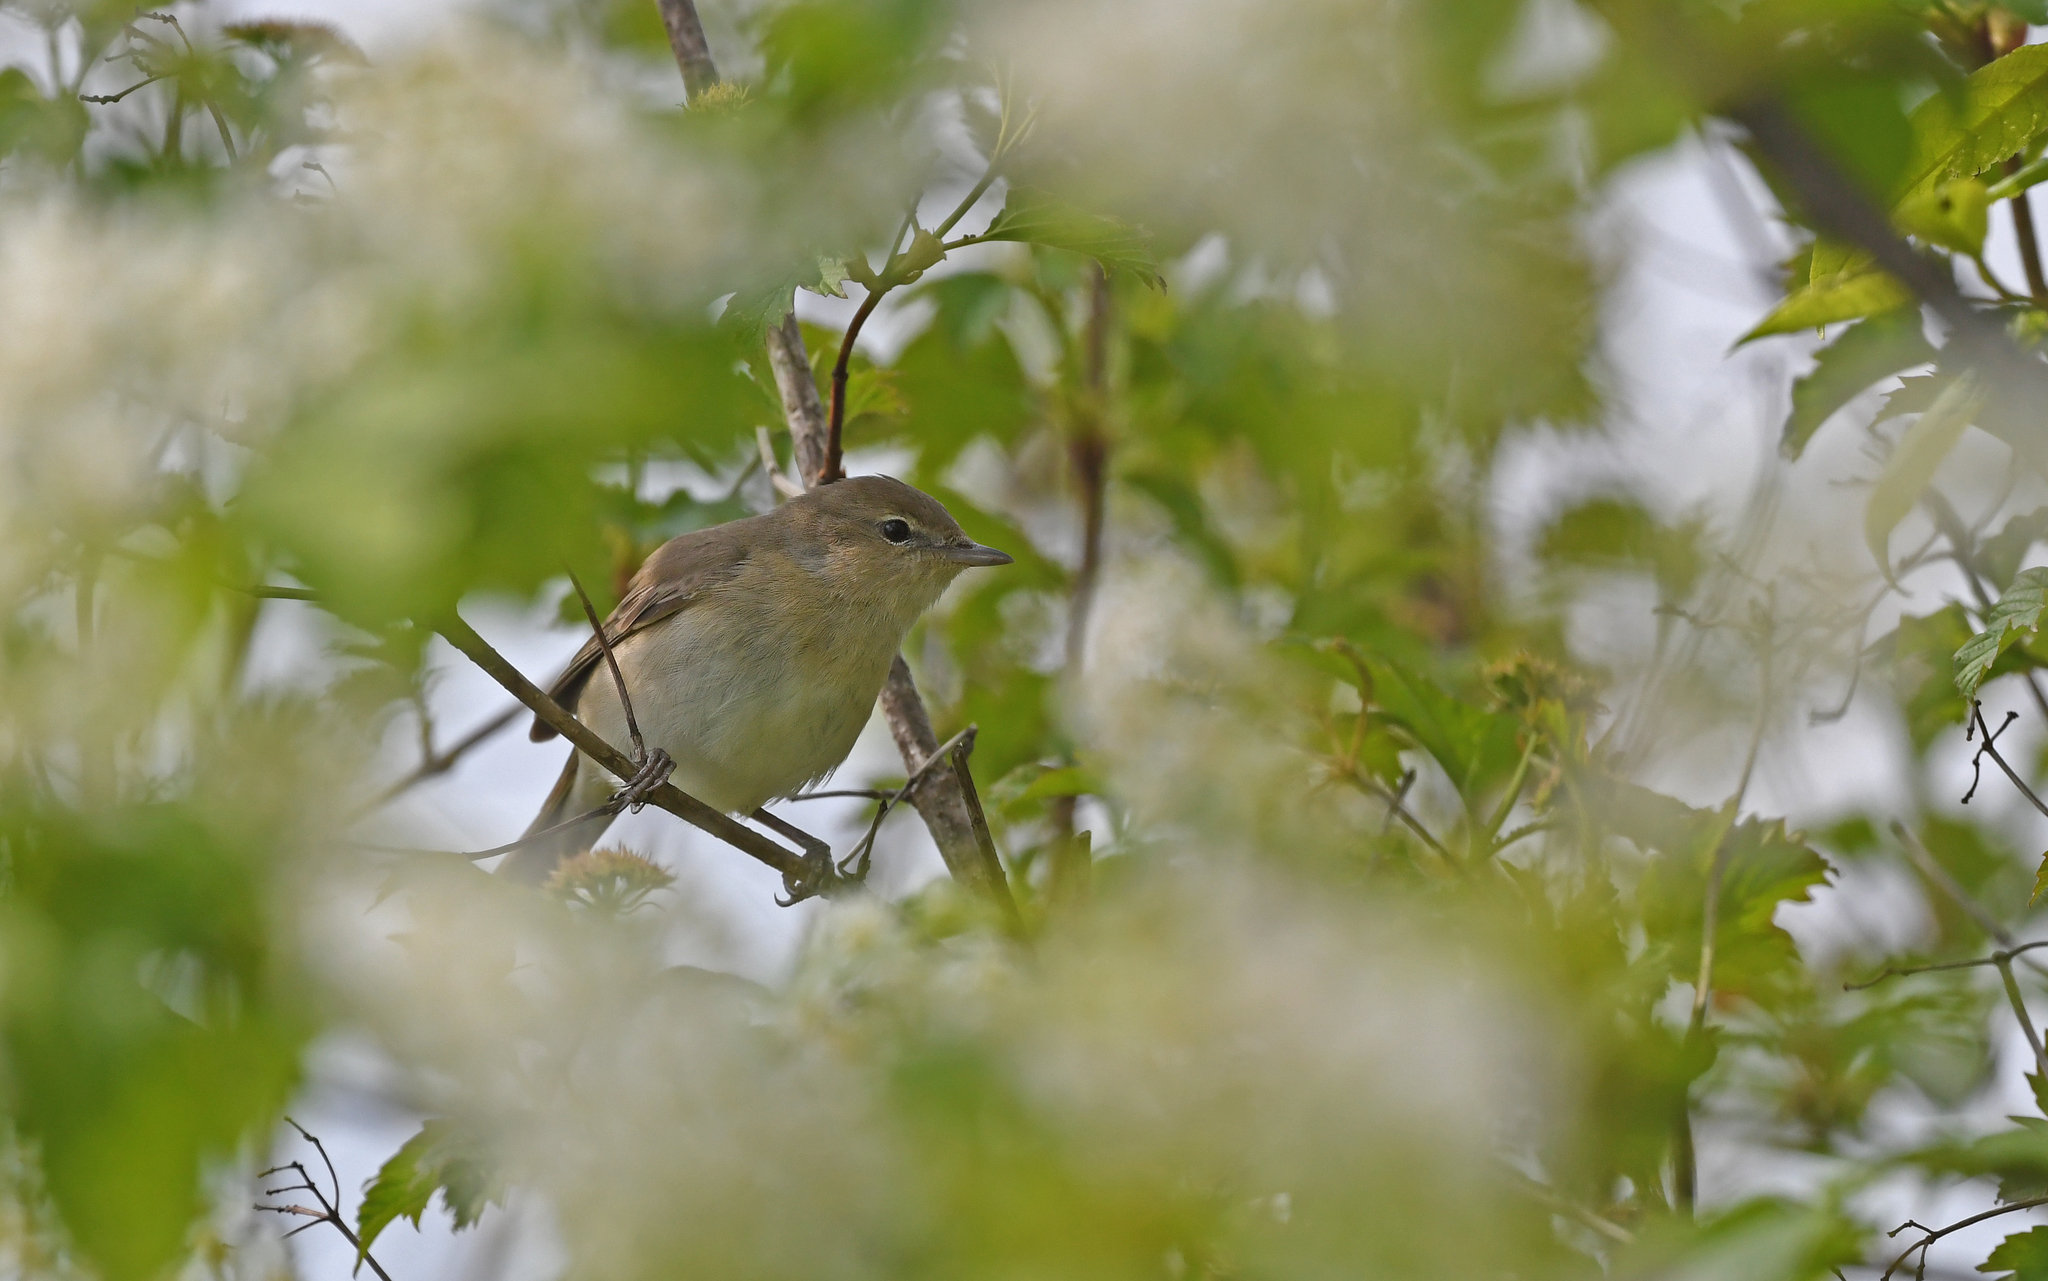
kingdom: Animalia
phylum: Chordata
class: Aves
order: Passeriformes
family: Sylviidae
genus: Sylvia
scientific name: Sylvia borin
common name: Garden warbler
